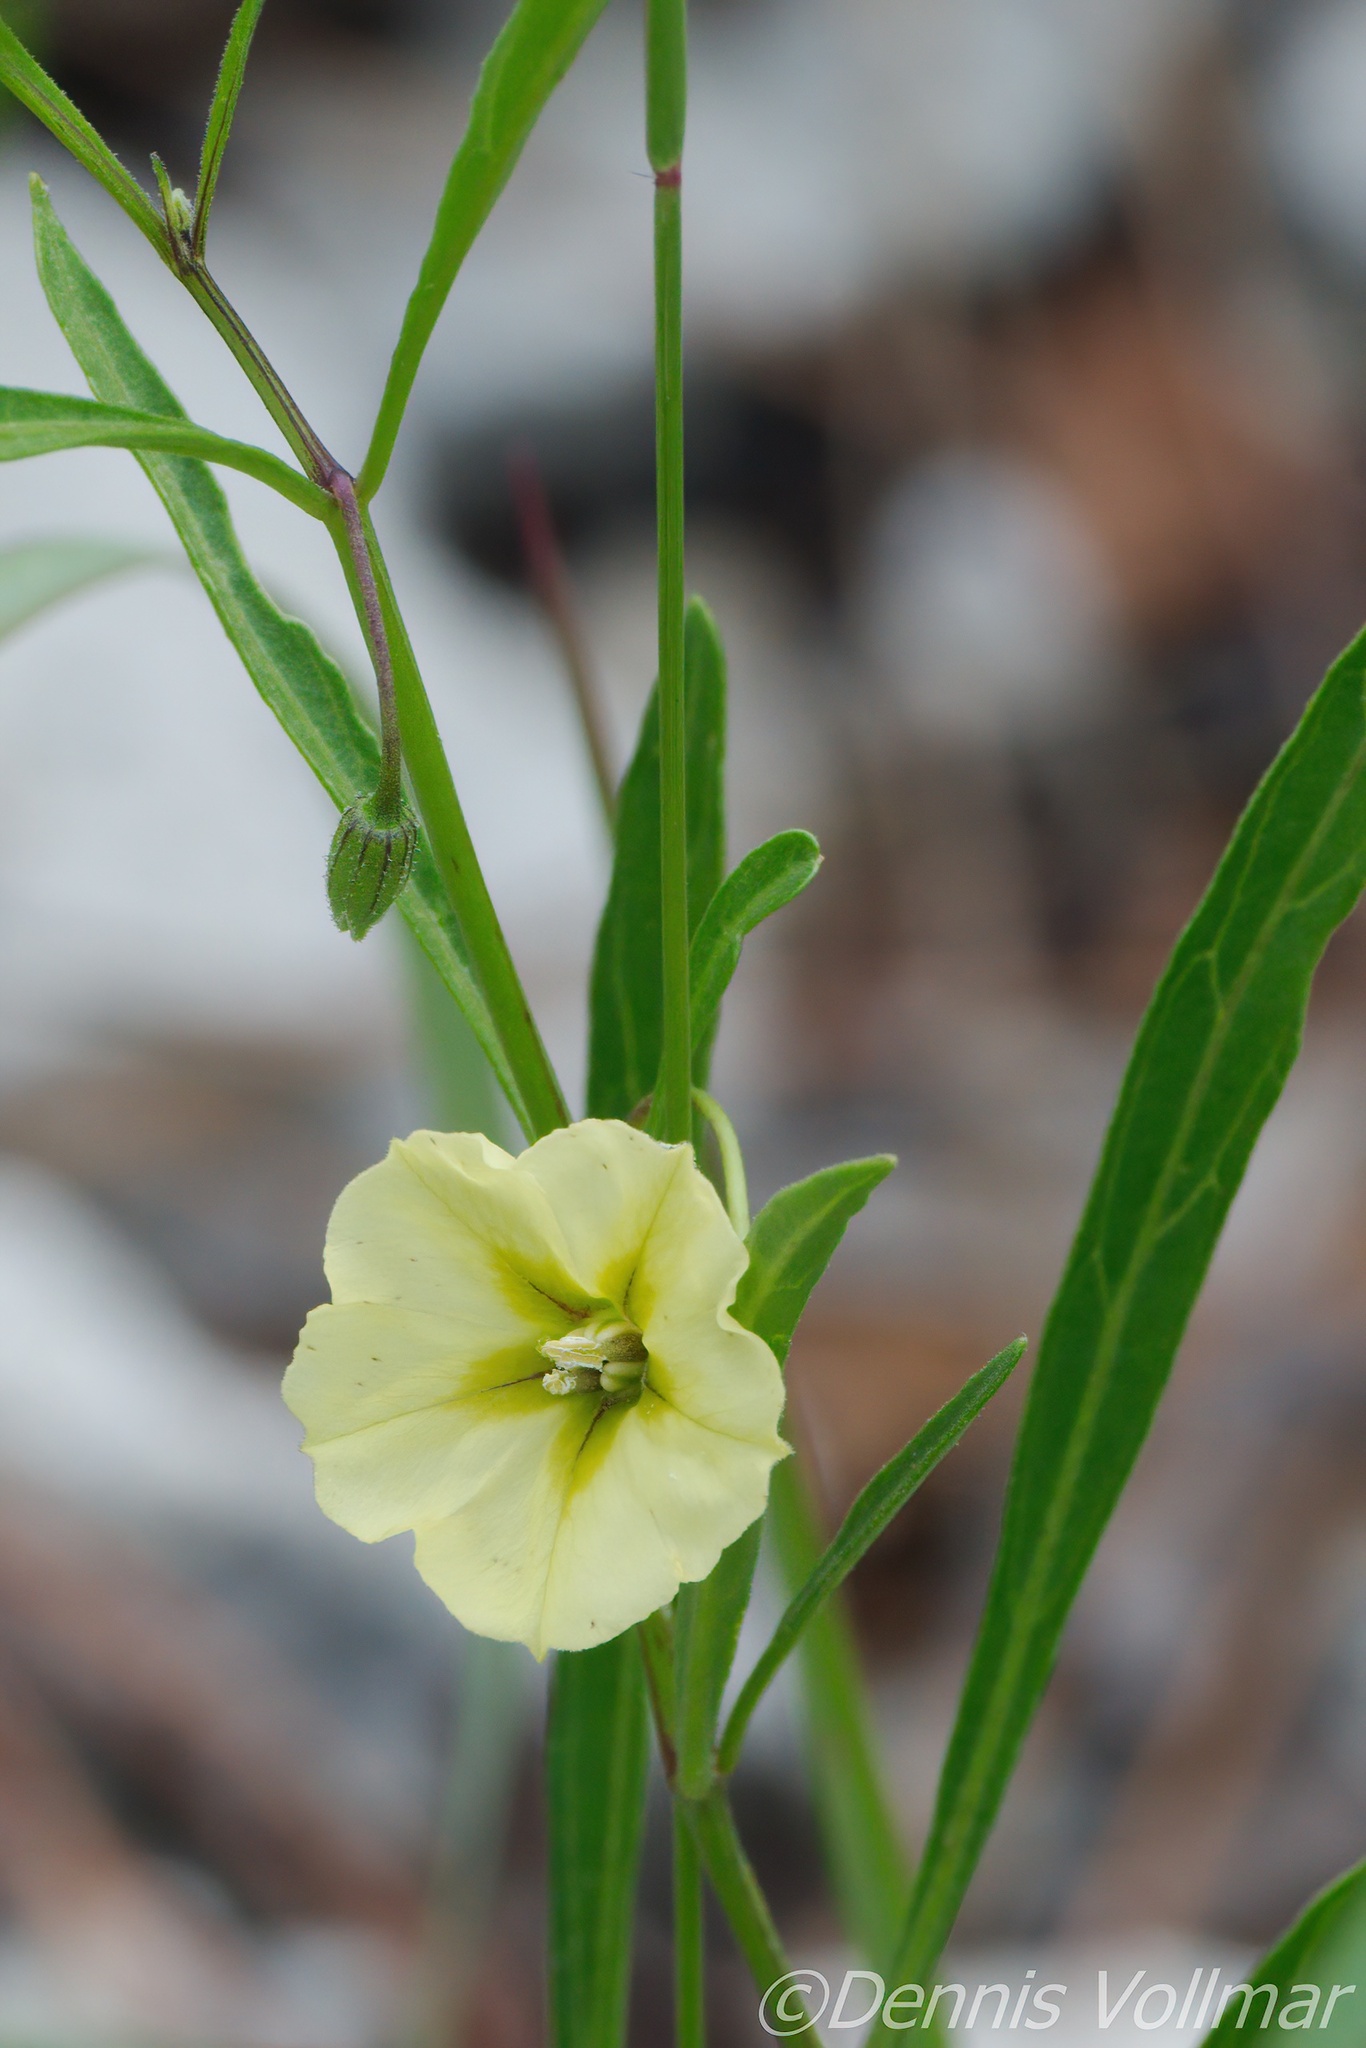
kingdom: Plantae
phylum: Tracheophyta
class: Magnoliopsida
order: Solanales
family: Solanaceae
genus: Physalis
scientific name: Physalis angustifolia
